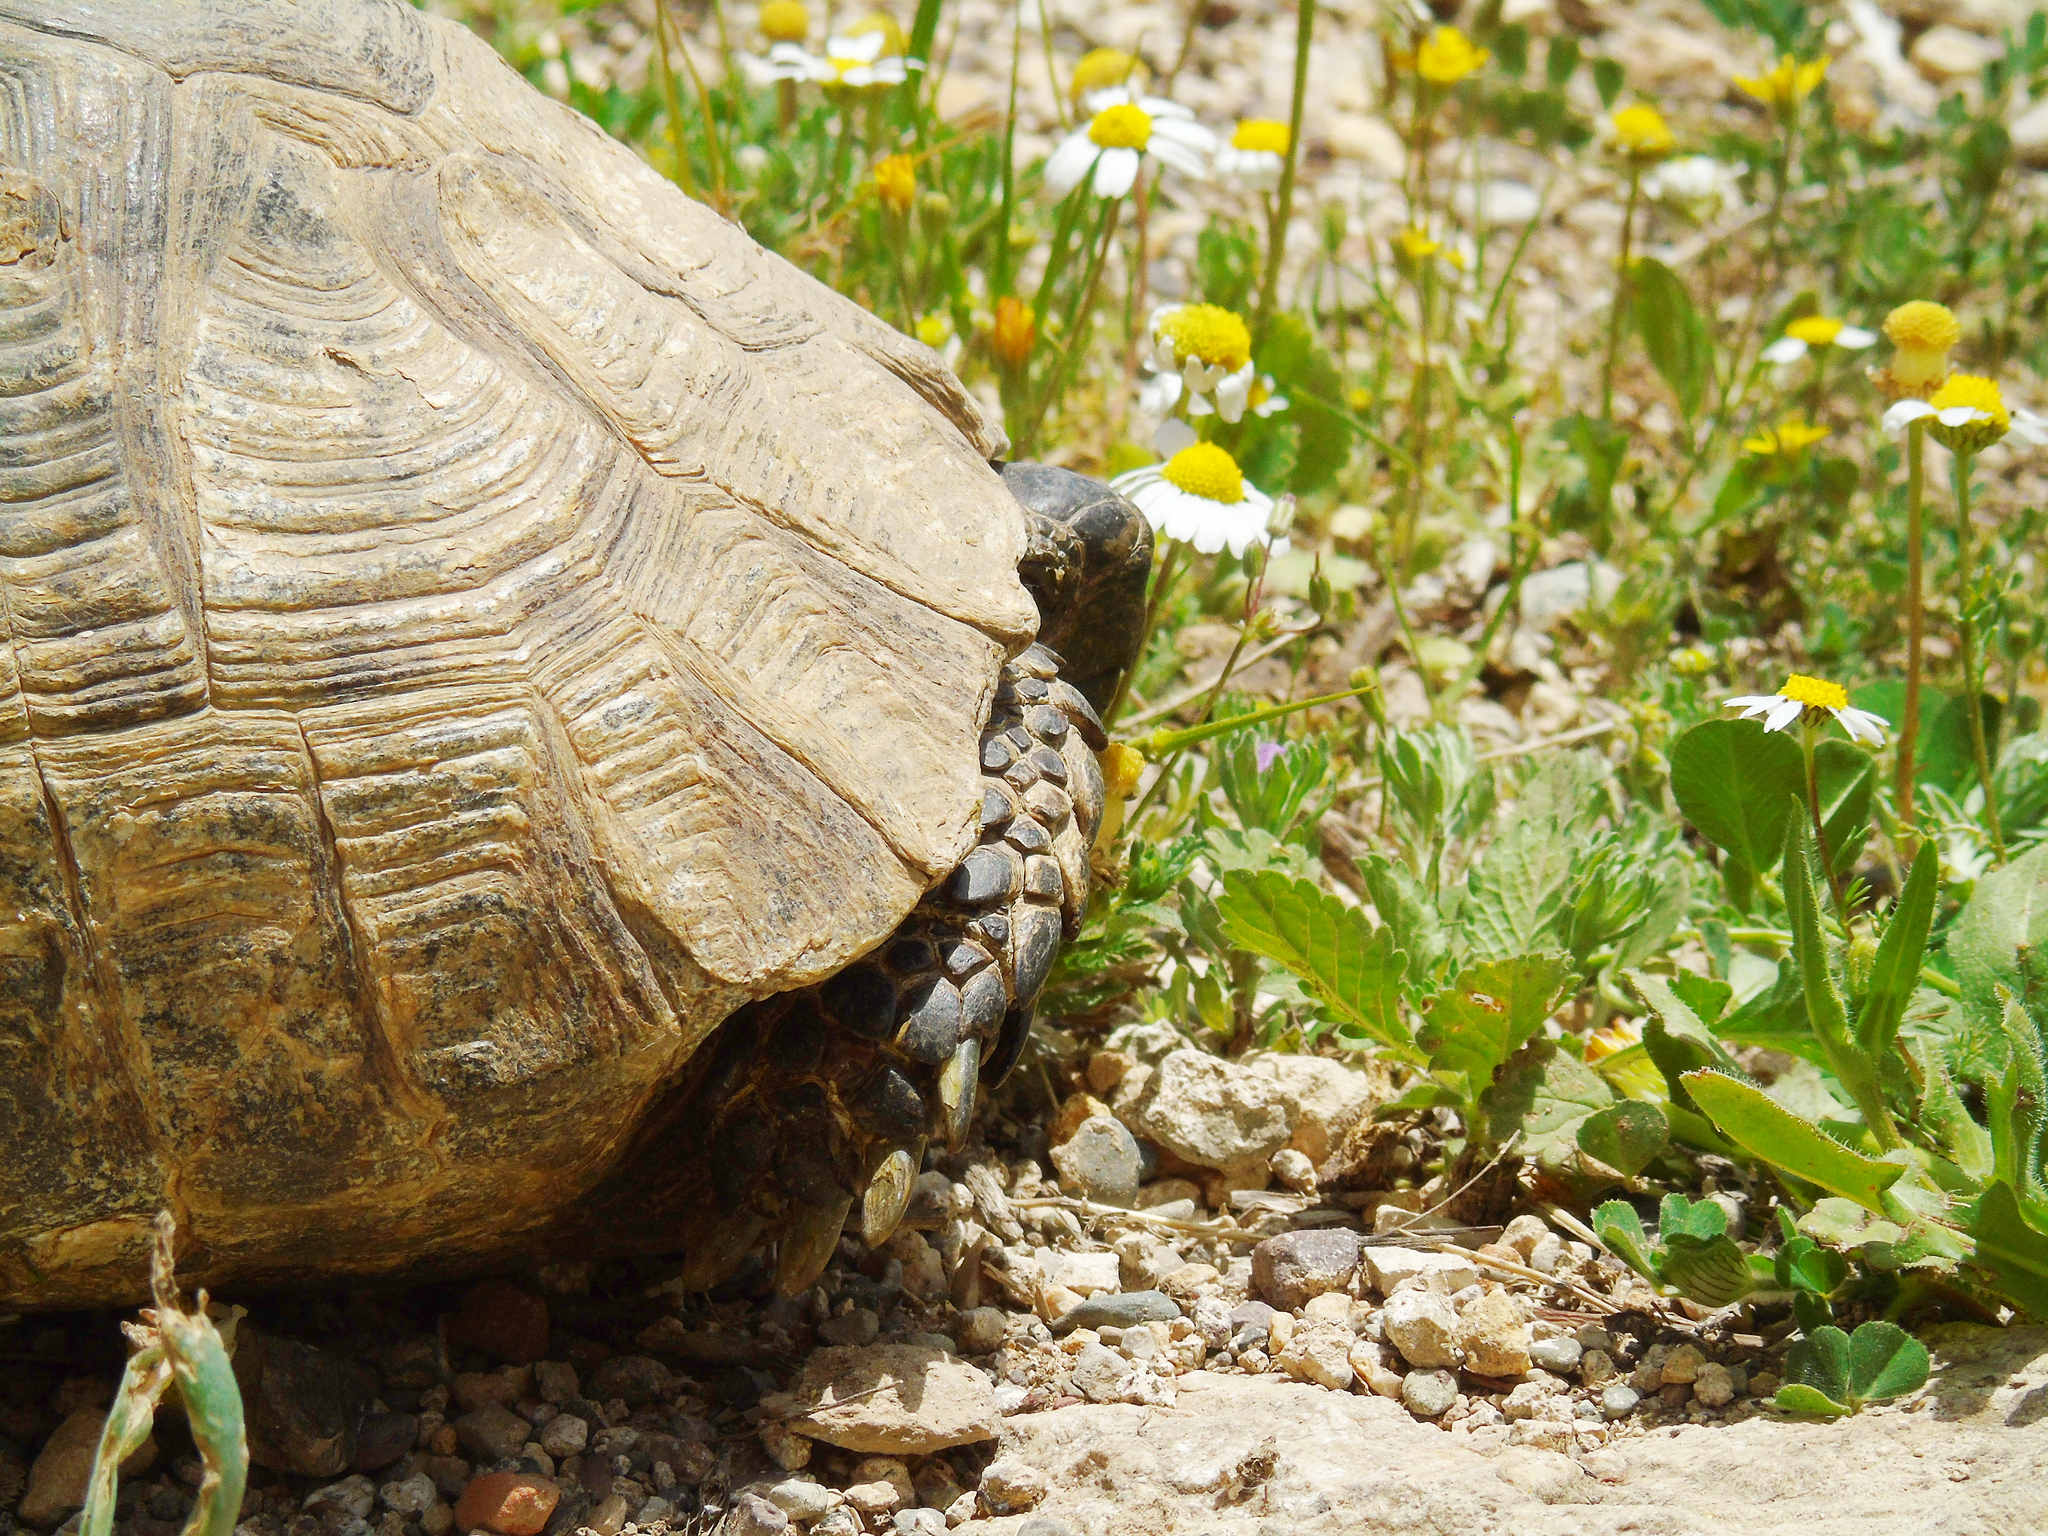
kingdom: Animalia
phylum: Chordata
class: Testudines
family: Testudinidae
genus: Testudo
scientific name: Testudo graeca
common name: Common tortoise
